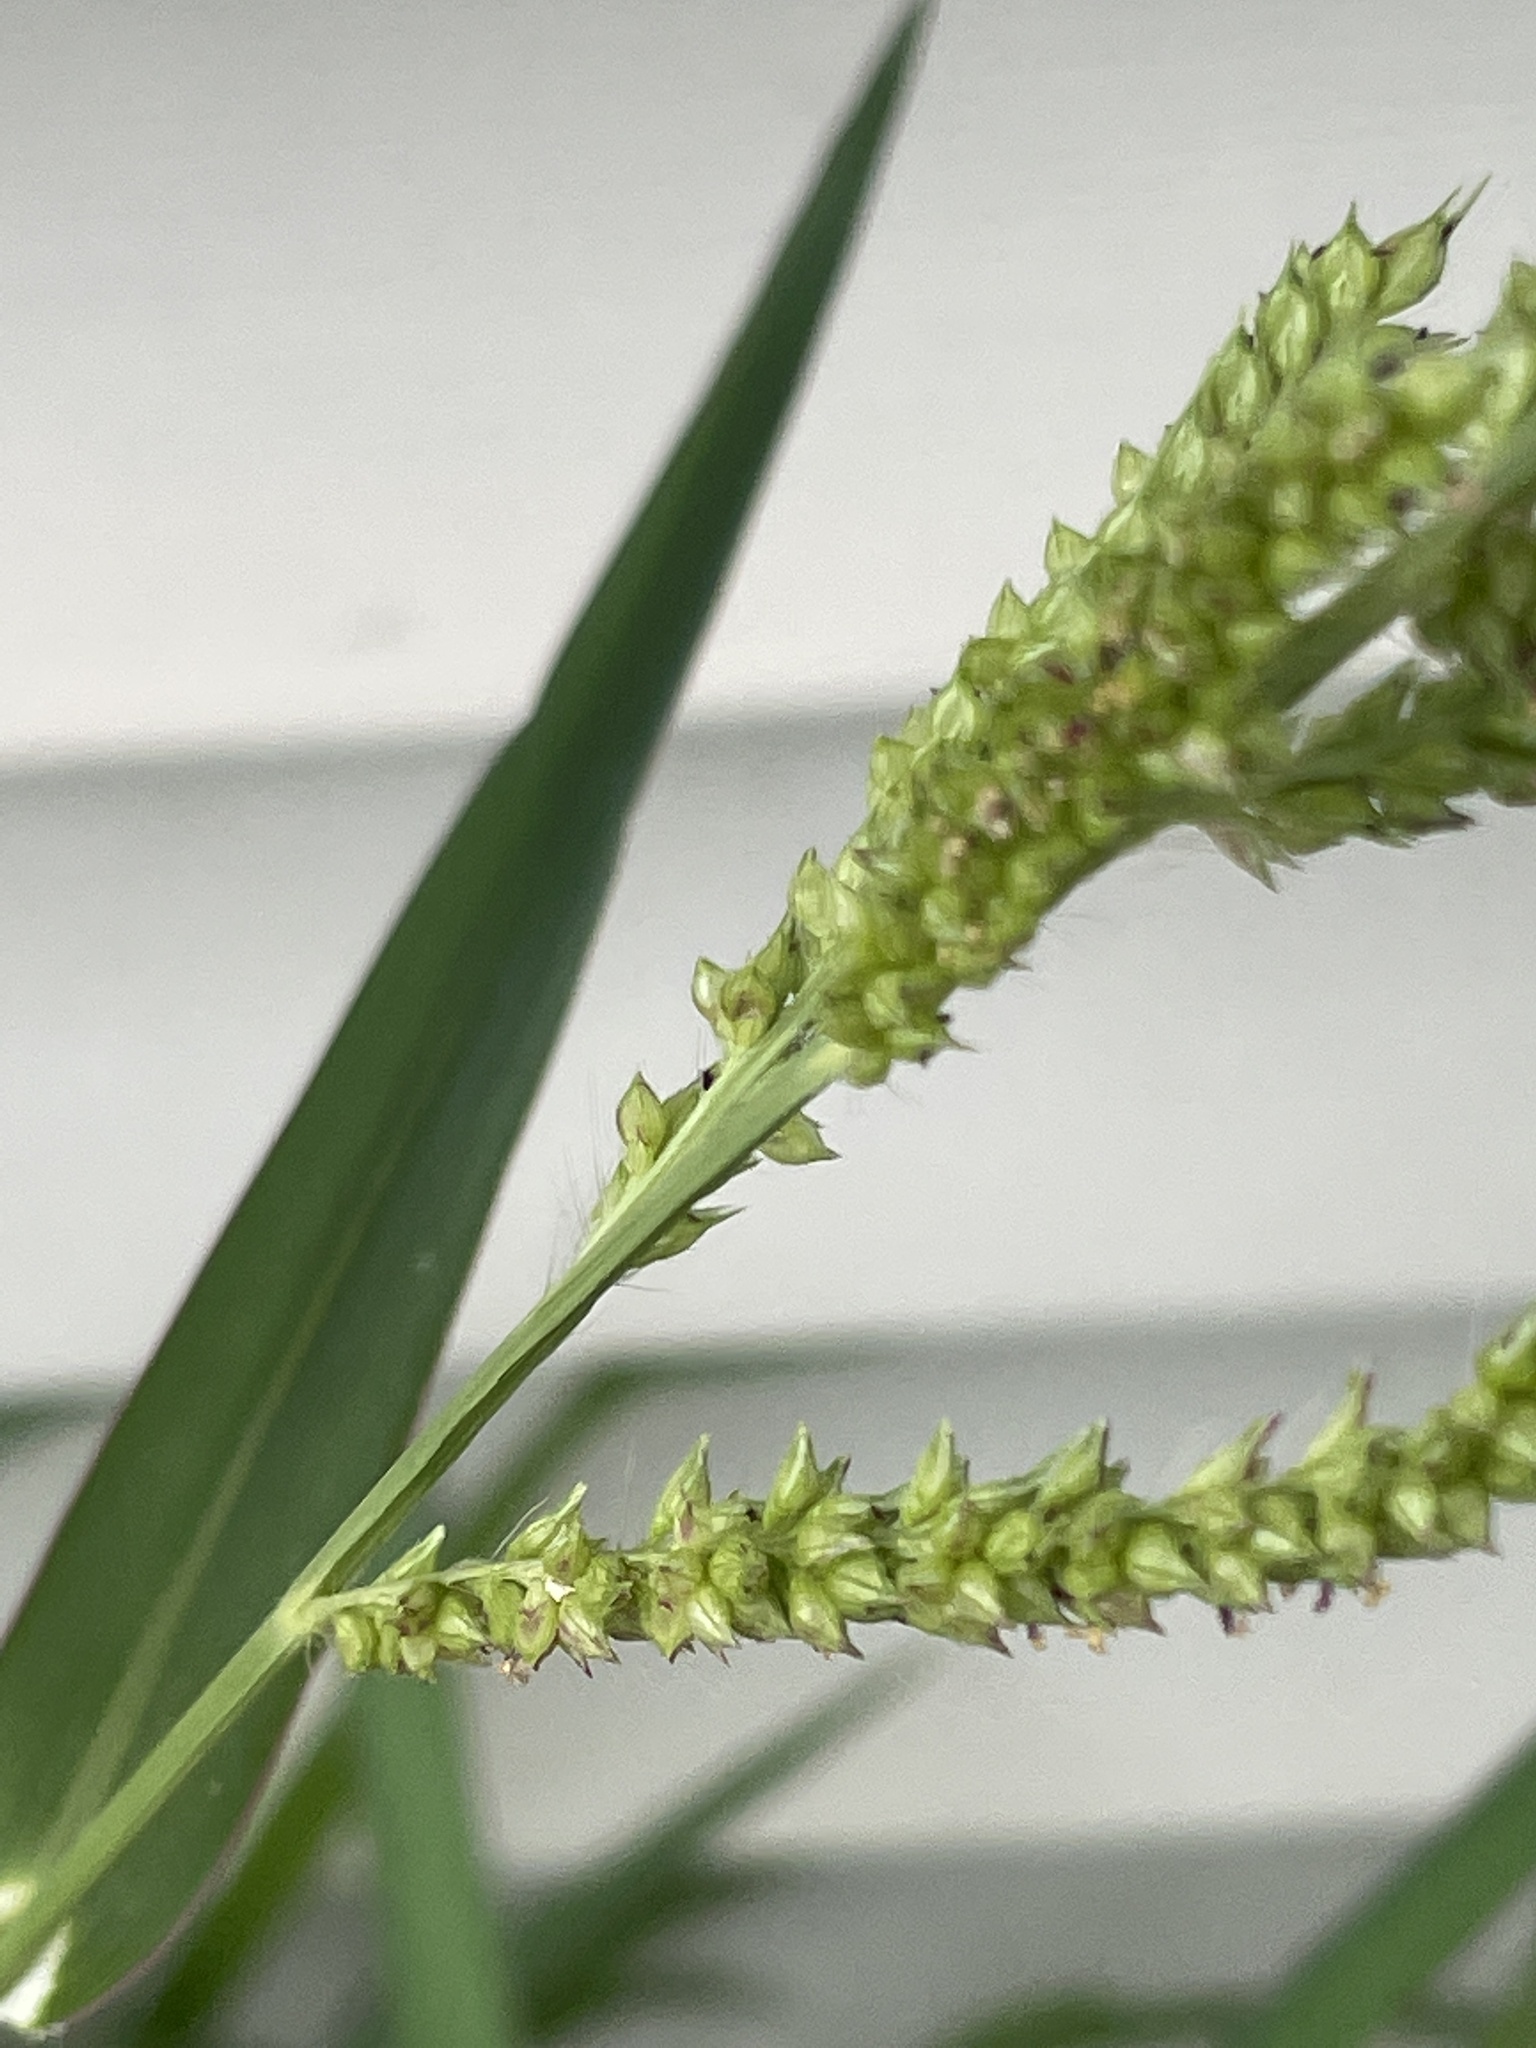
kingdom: Plantae
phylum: Tracheophyta
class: Liliopsida
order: Poales
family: Poaceae
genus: Echinochloa
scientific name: Echinochloa crus-galli
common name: Cockspur
